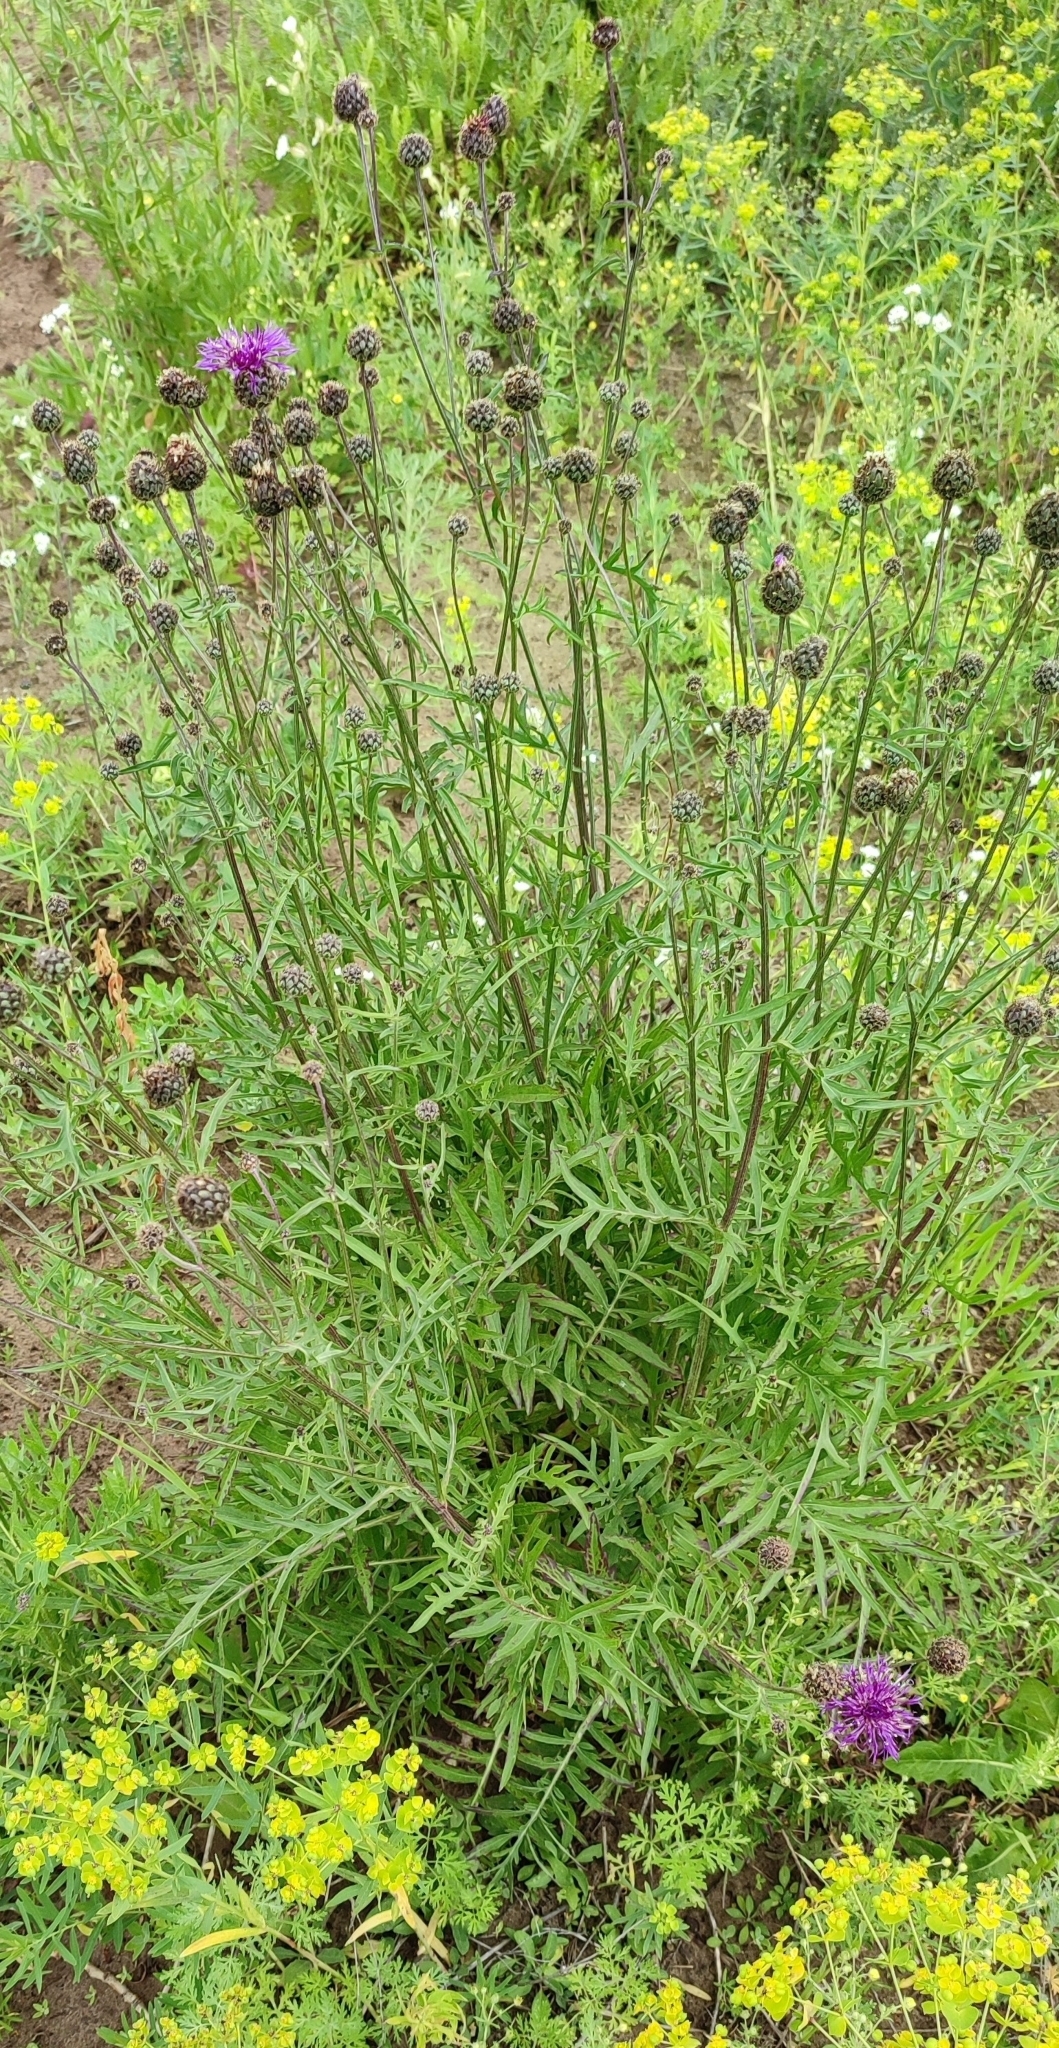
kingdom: Plantae
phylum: Tracheophyta
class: Magnoliopsida
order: Asterales
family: Asteraceae
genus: Centaurea
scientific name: Centaurea scabiosa
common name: Greater knapweed
